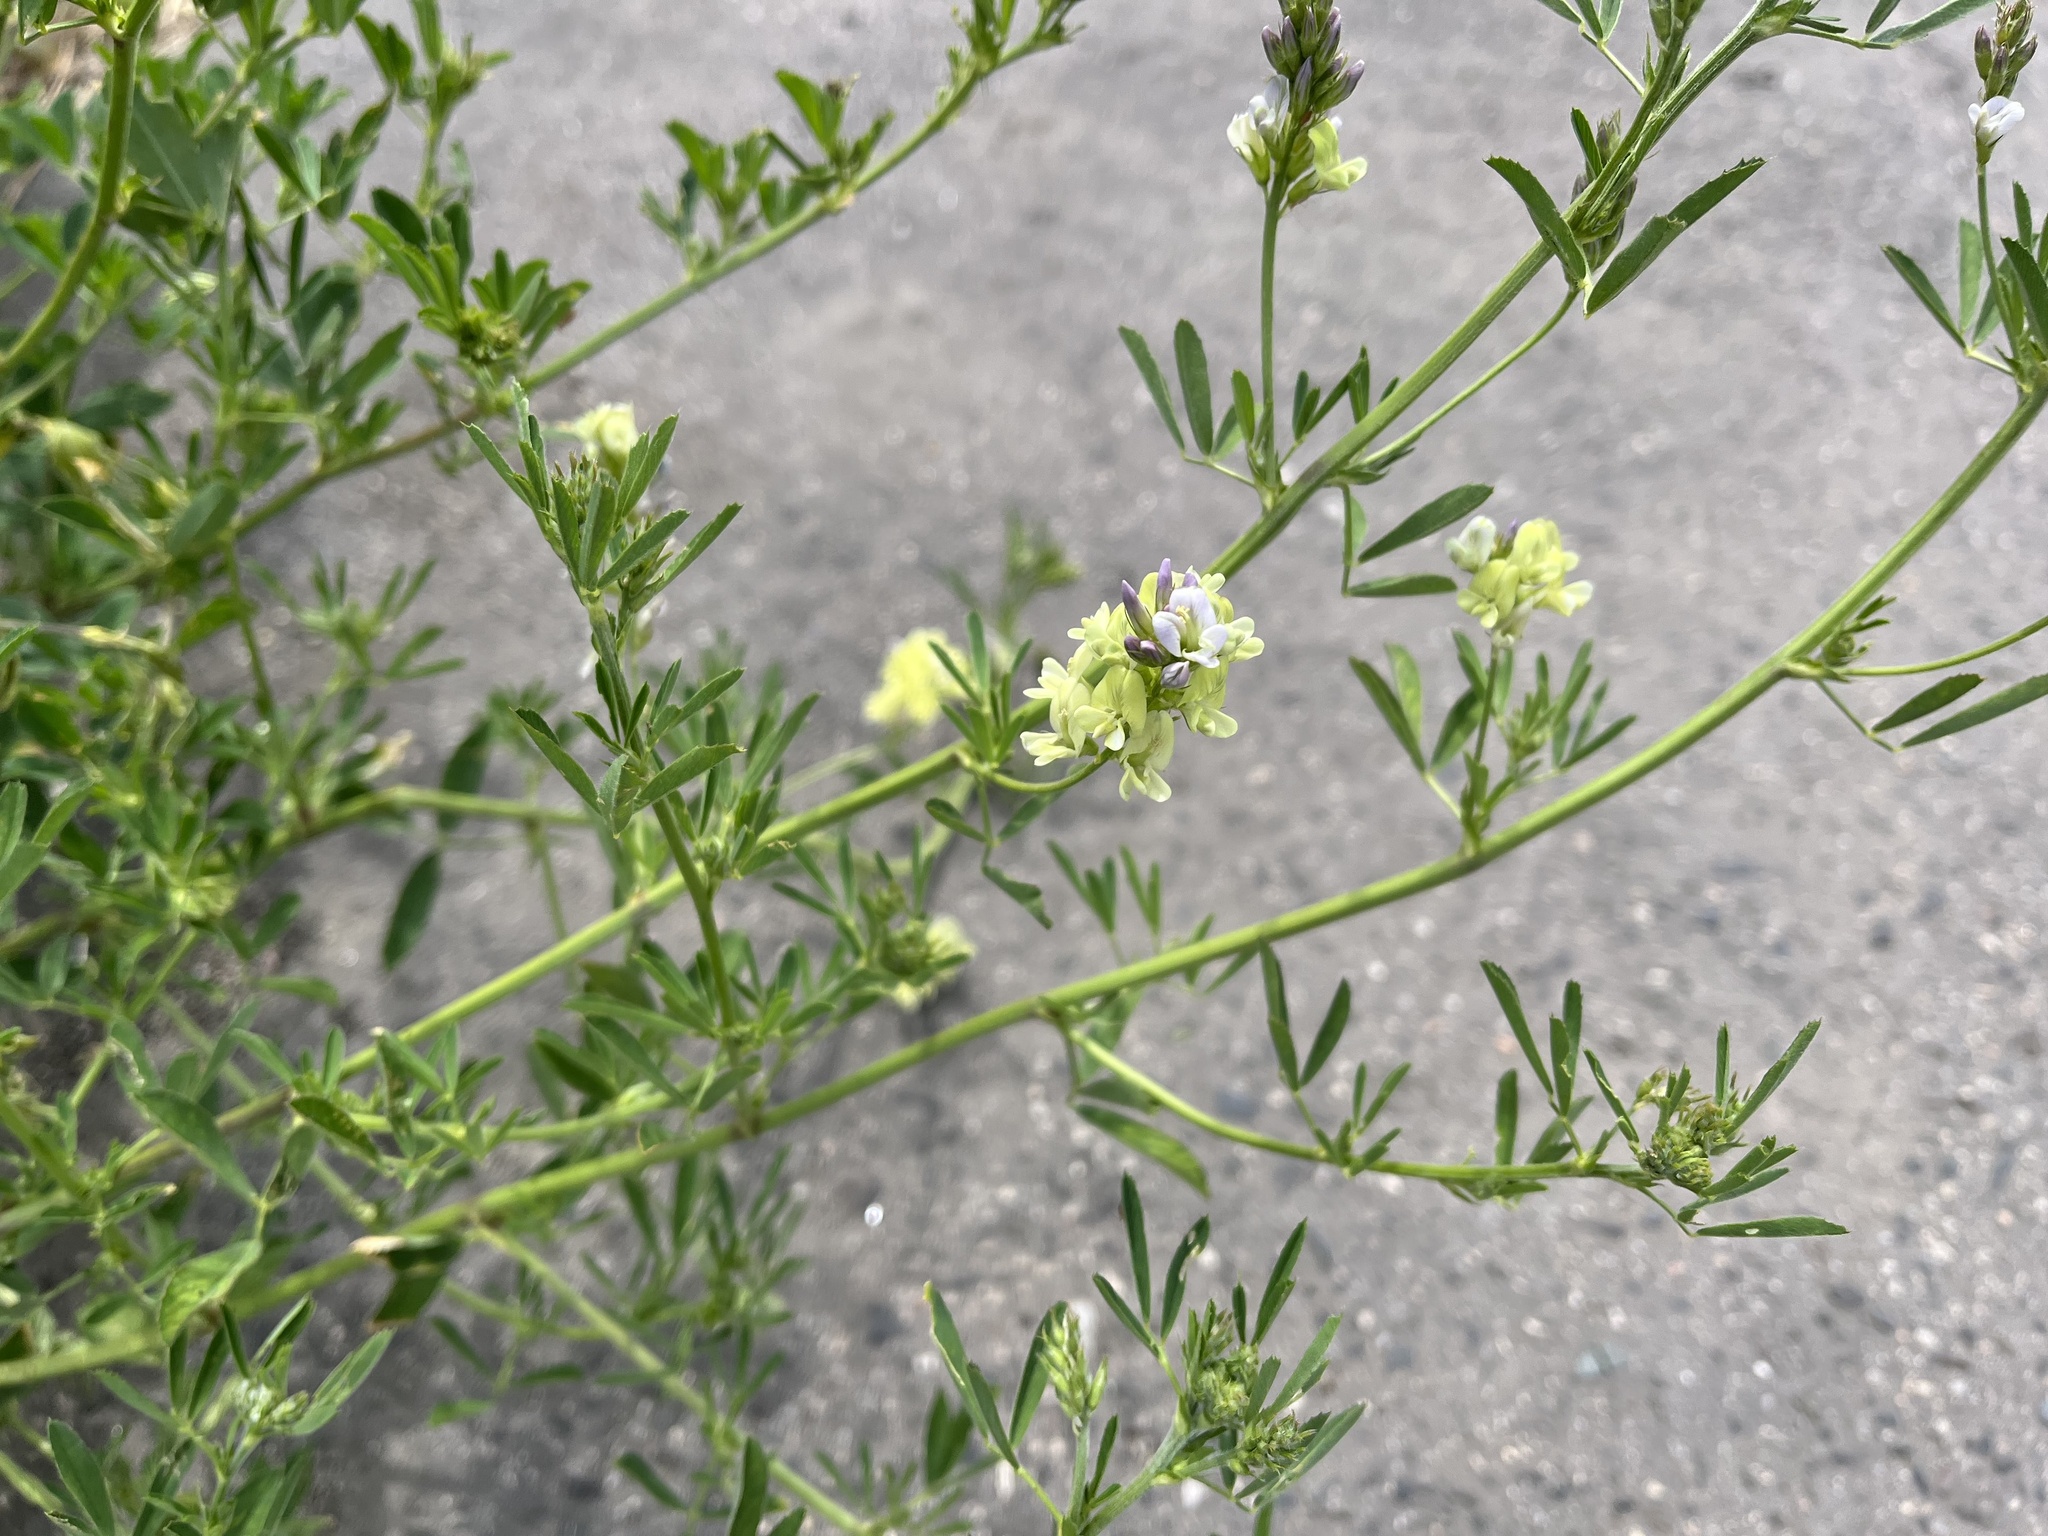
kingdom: Plantae
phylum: Tracheophyta
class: Magnoliopsida
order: Fabales
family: Fabaceae
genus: Medicago
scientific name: Medicago varia
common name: Sand lucerne
